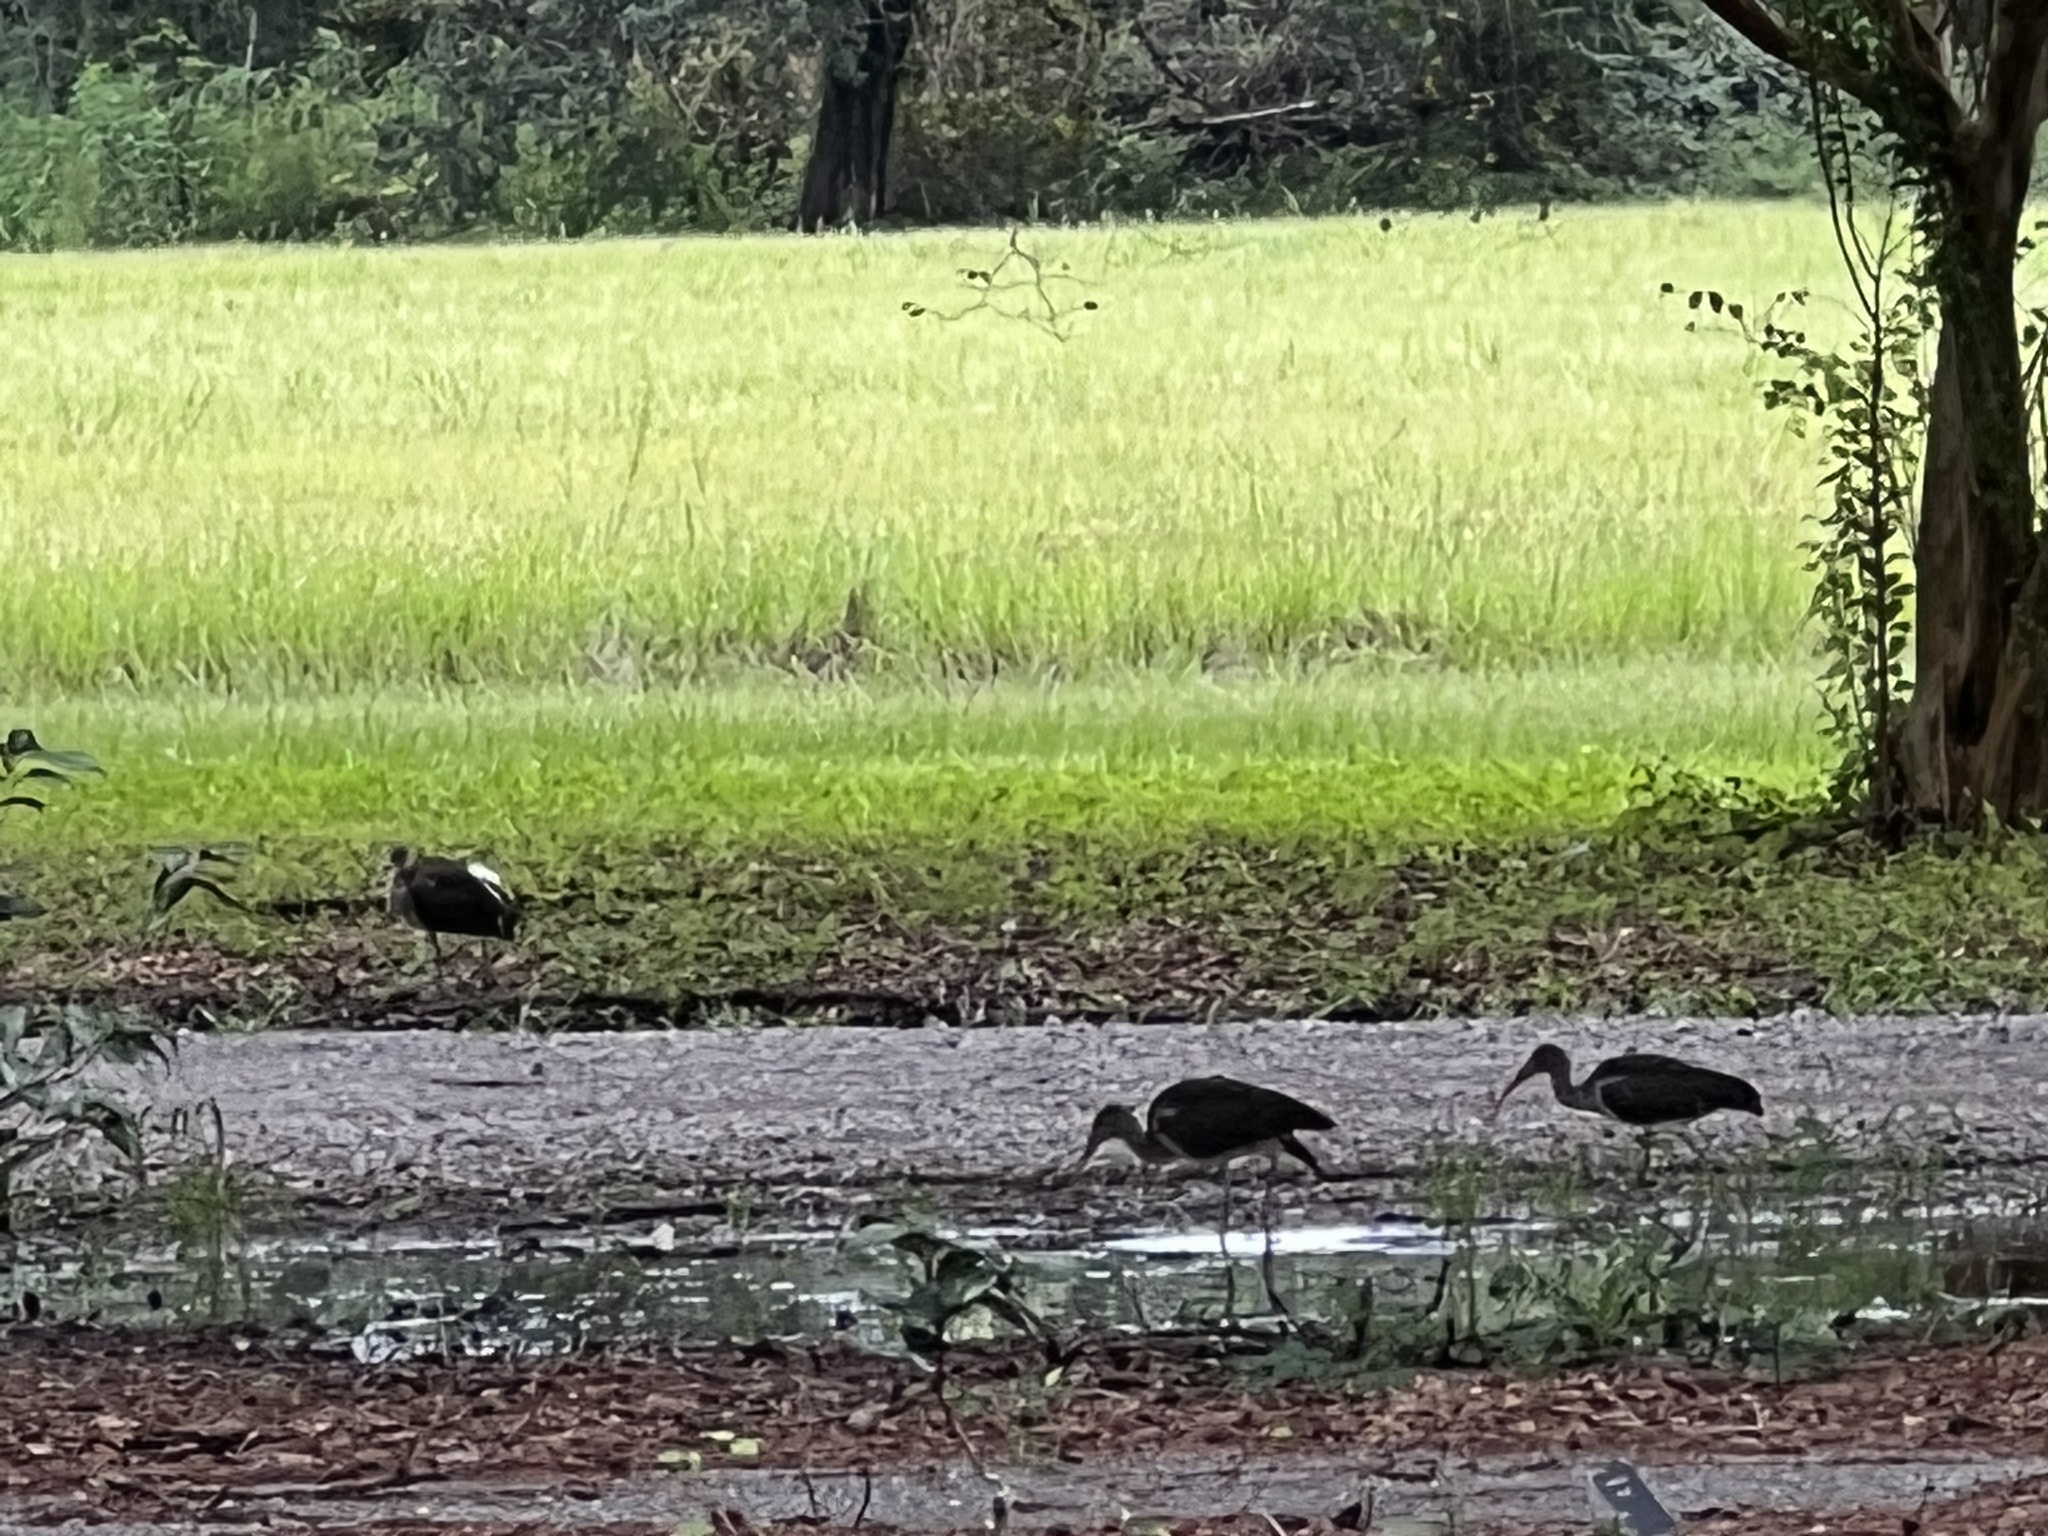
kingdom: Animalia
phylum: Chordata
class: Aves
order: Pelecaniformes
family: Threskiornithidae
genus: Eudocimus
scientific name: Eudocimus albus
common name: White ibis
